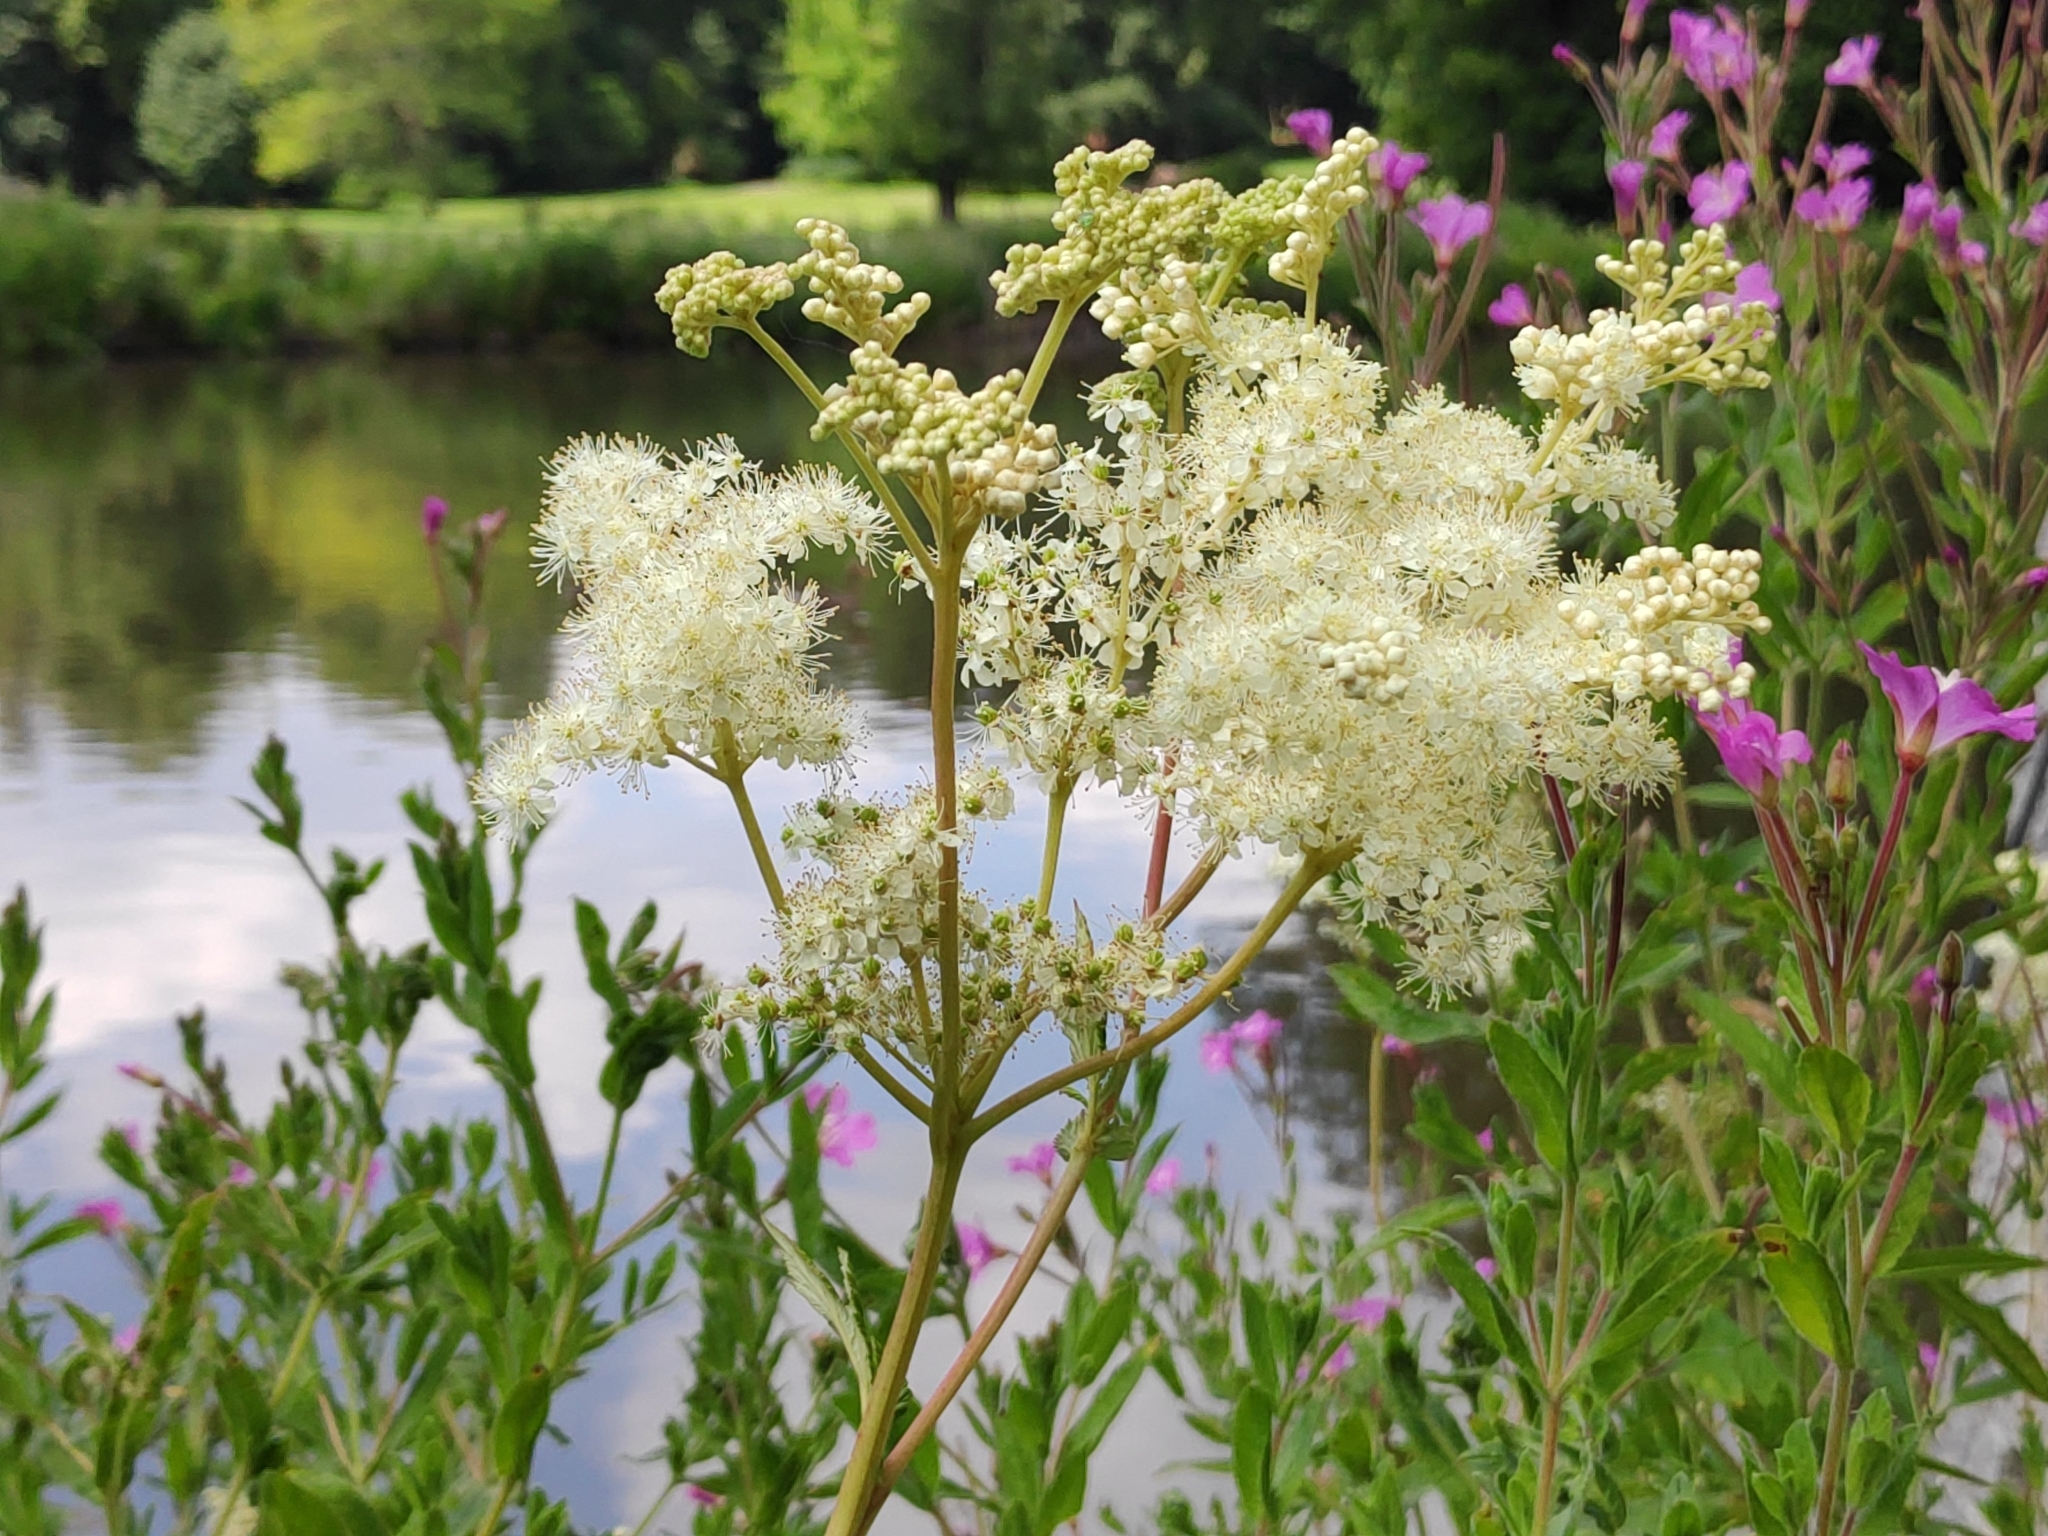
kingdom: Plantae
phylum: Tracheophyta
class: Magnoliopsida
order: Rosales
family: Rosaceae
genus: Filipendula
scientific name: Filipendula ulmaria
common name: Meadowsweet
